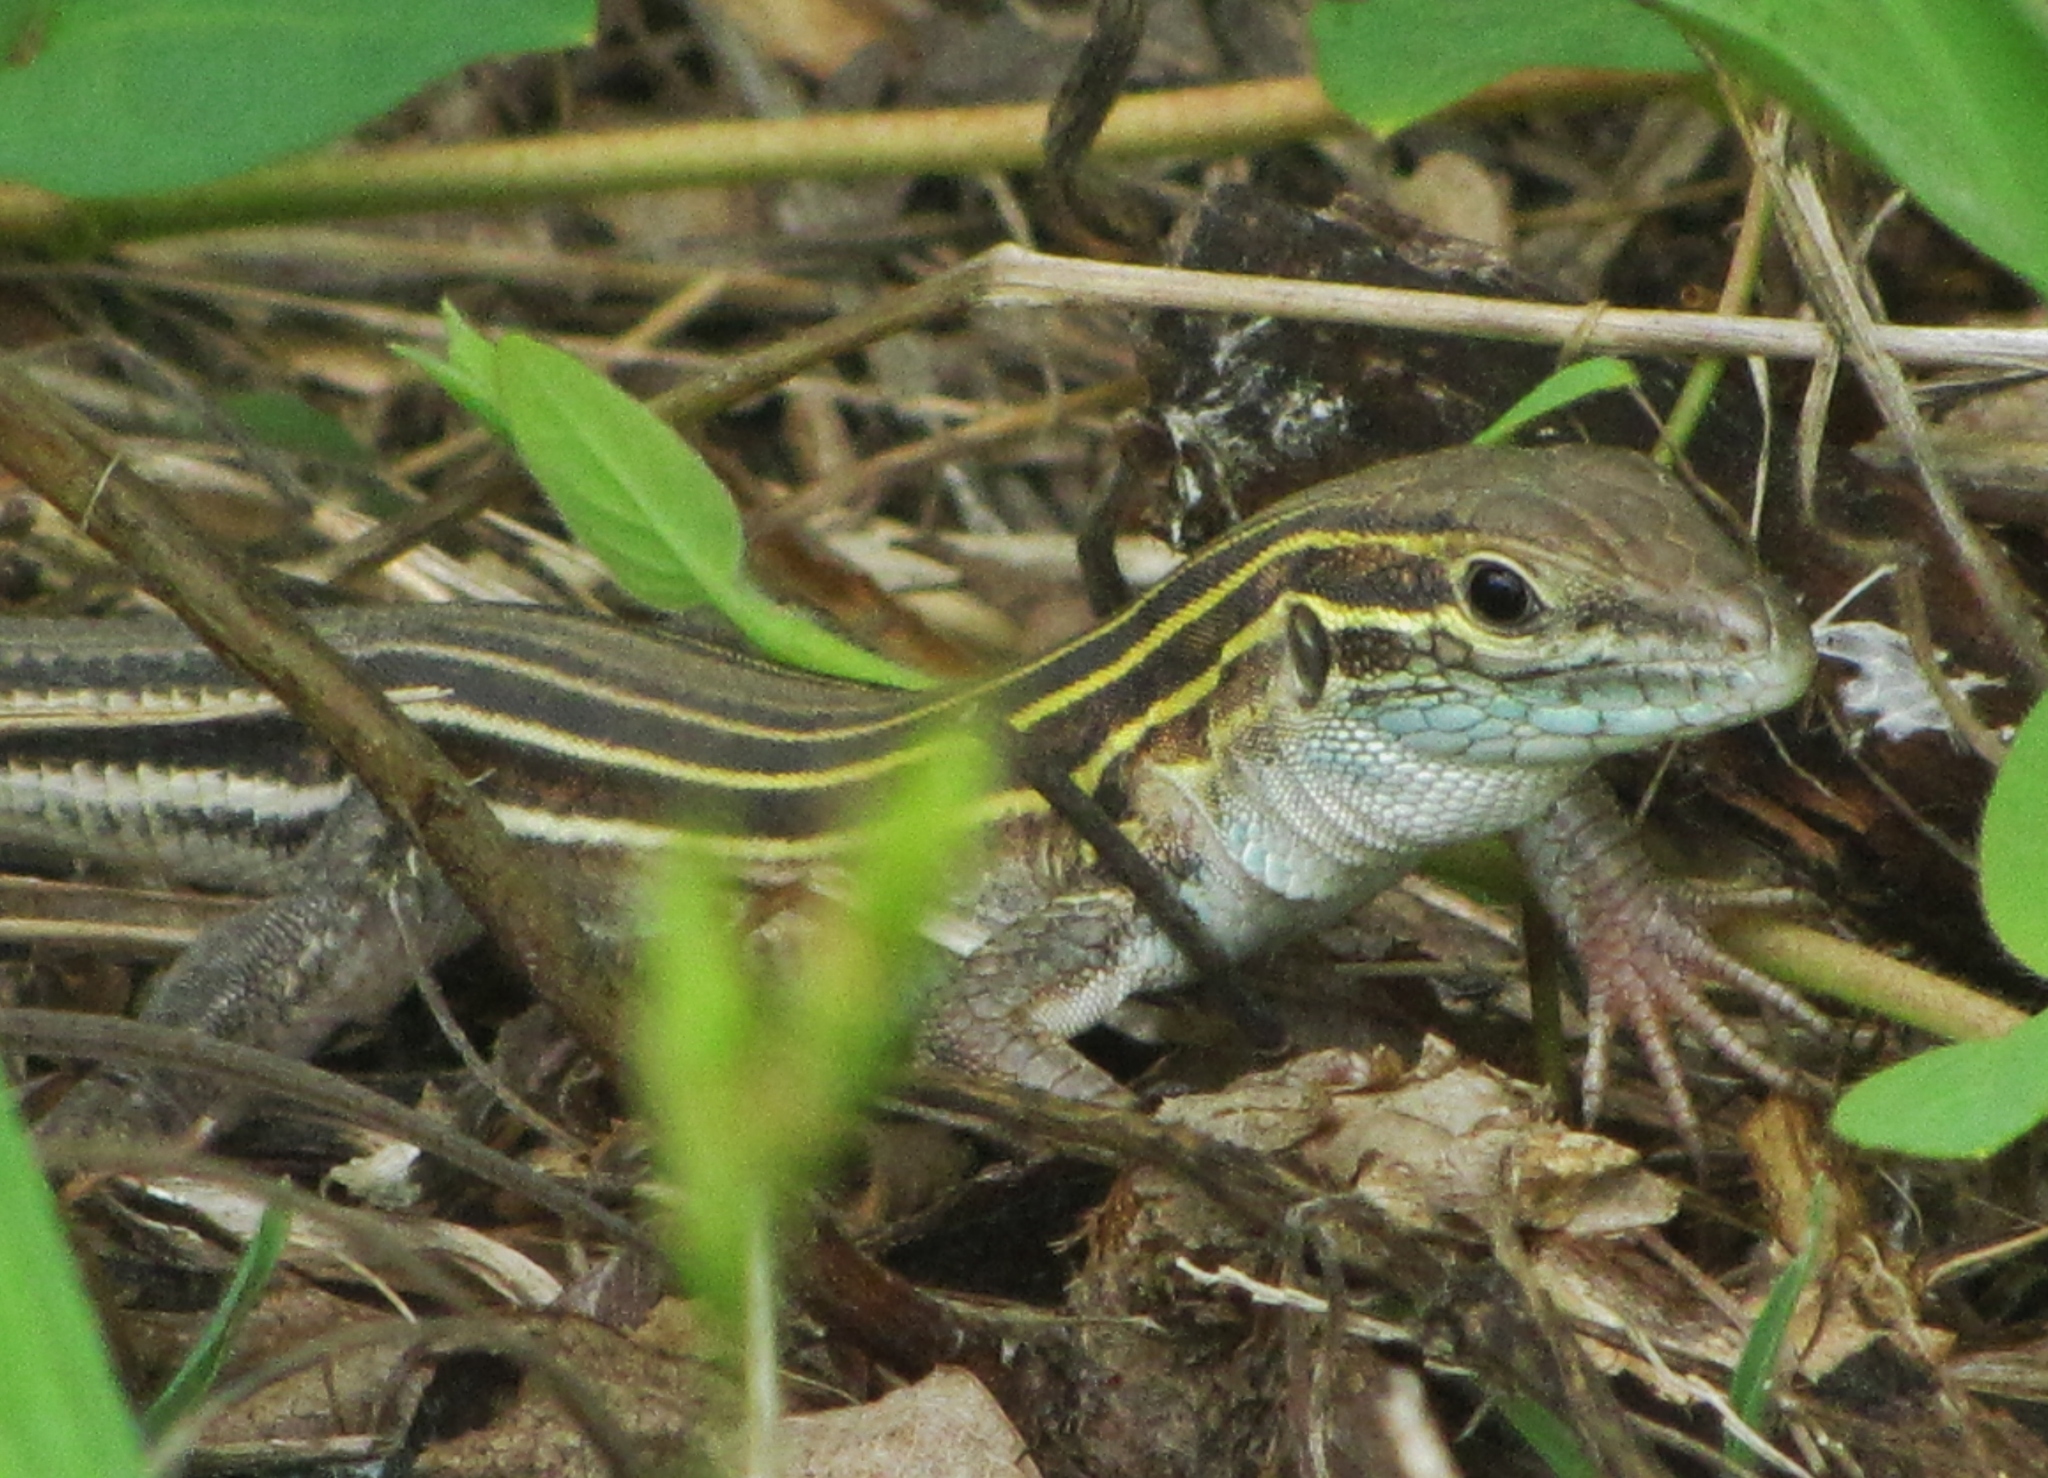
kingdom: Animalia
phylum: Chordata
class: Squamata
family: Teiidae
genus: Aspidoscelis
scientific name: Aspidoscelis sexlineatus
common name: Six-lined racerunner
